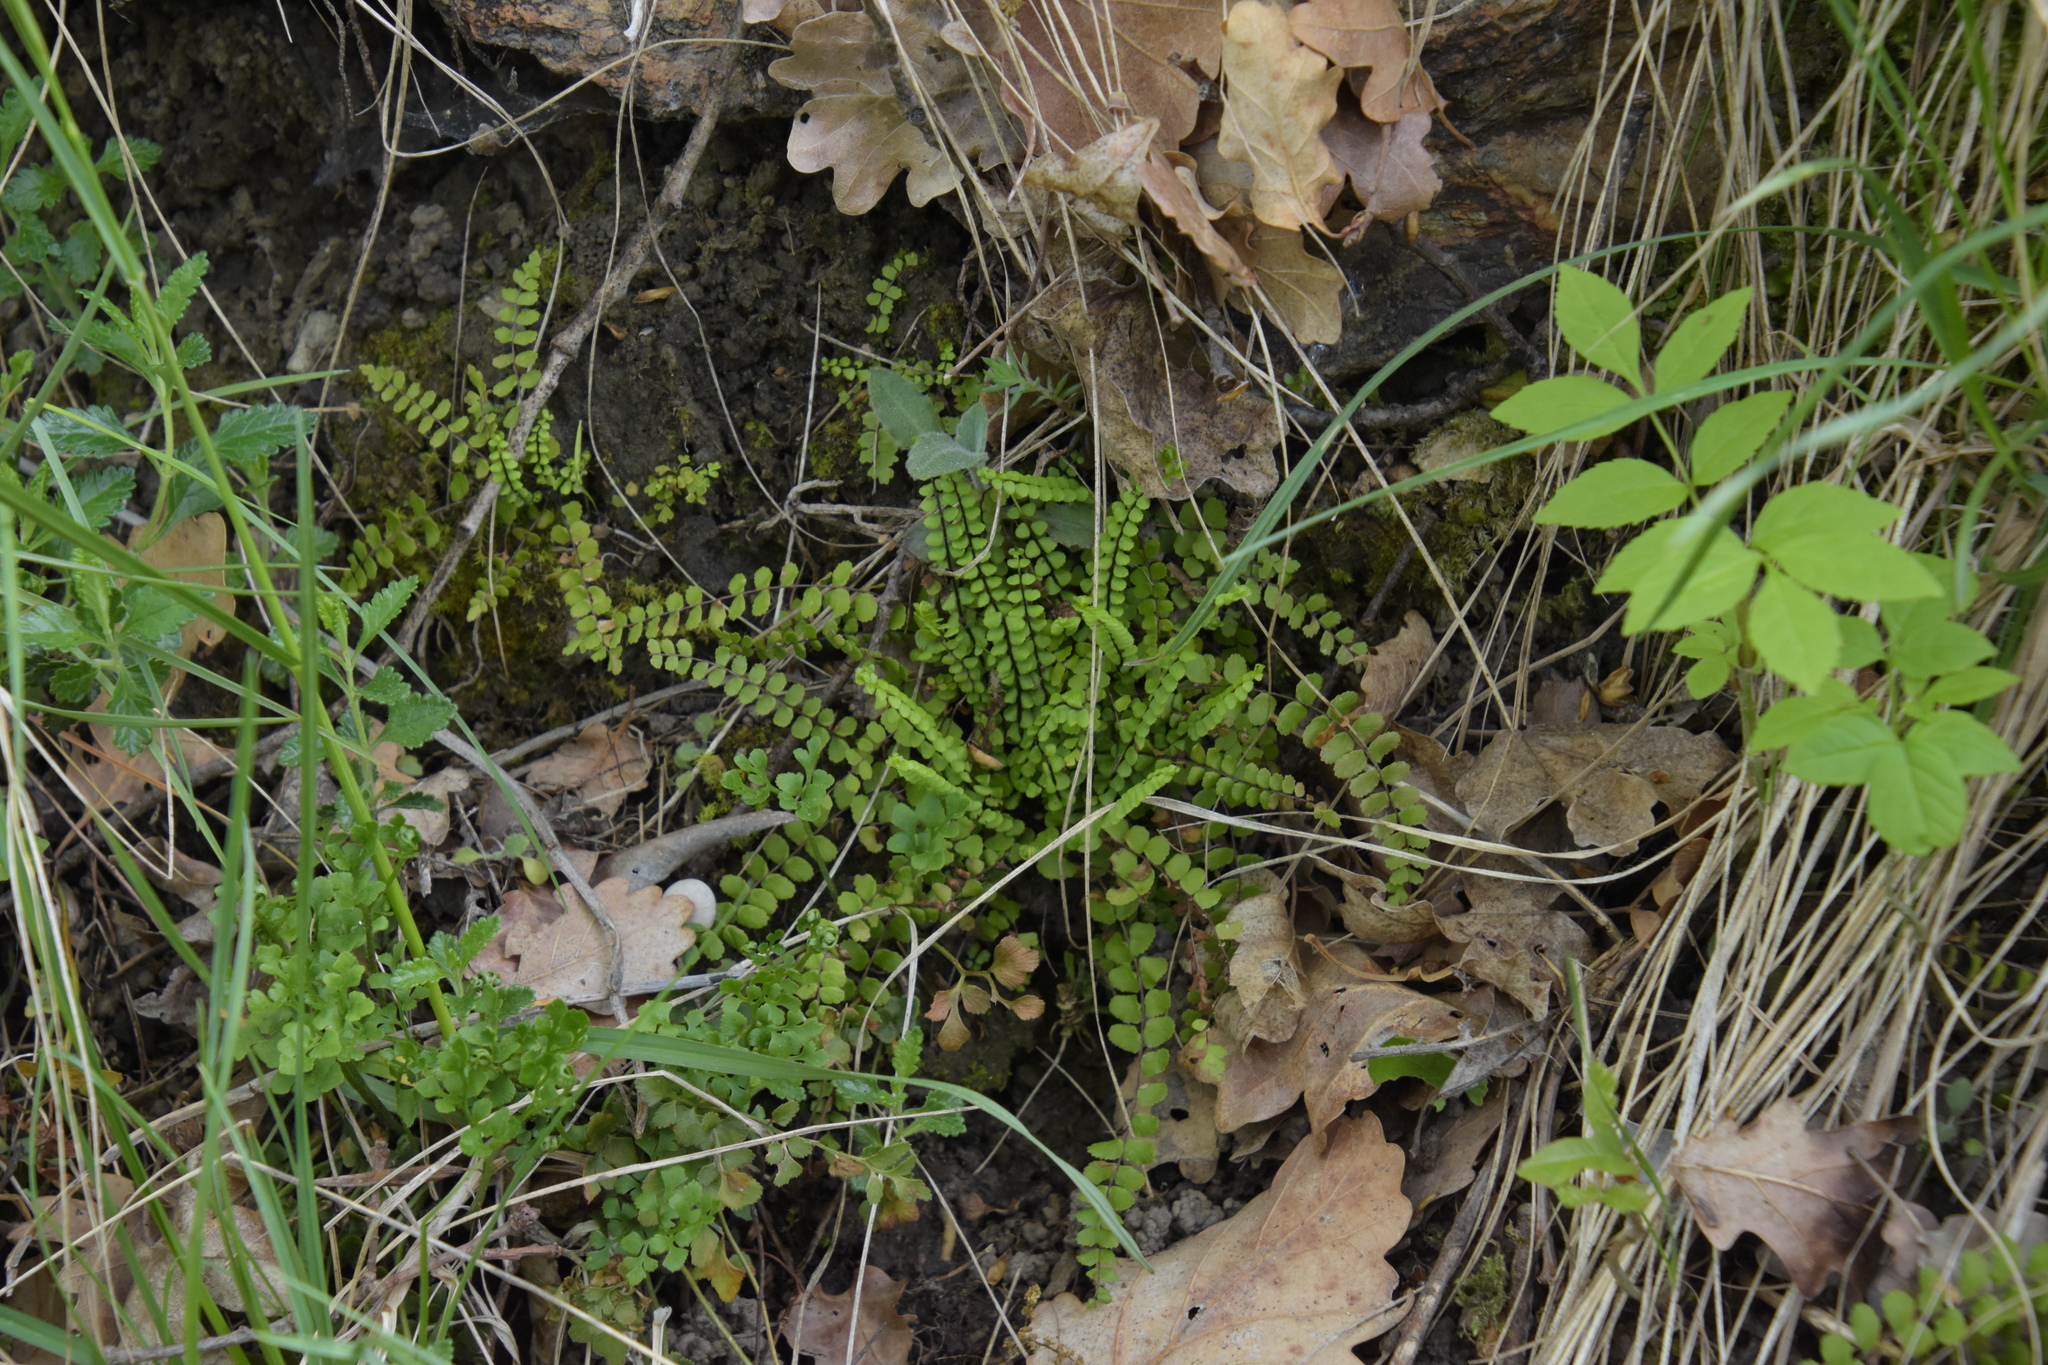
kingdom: Plantae
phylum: Tracheophyta
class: Polypodiopsida
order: Polypodiales
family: Aspleniaceae
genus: Asplenium
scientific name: Asplenium trichomanes
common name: Maidenhair spleenwort
